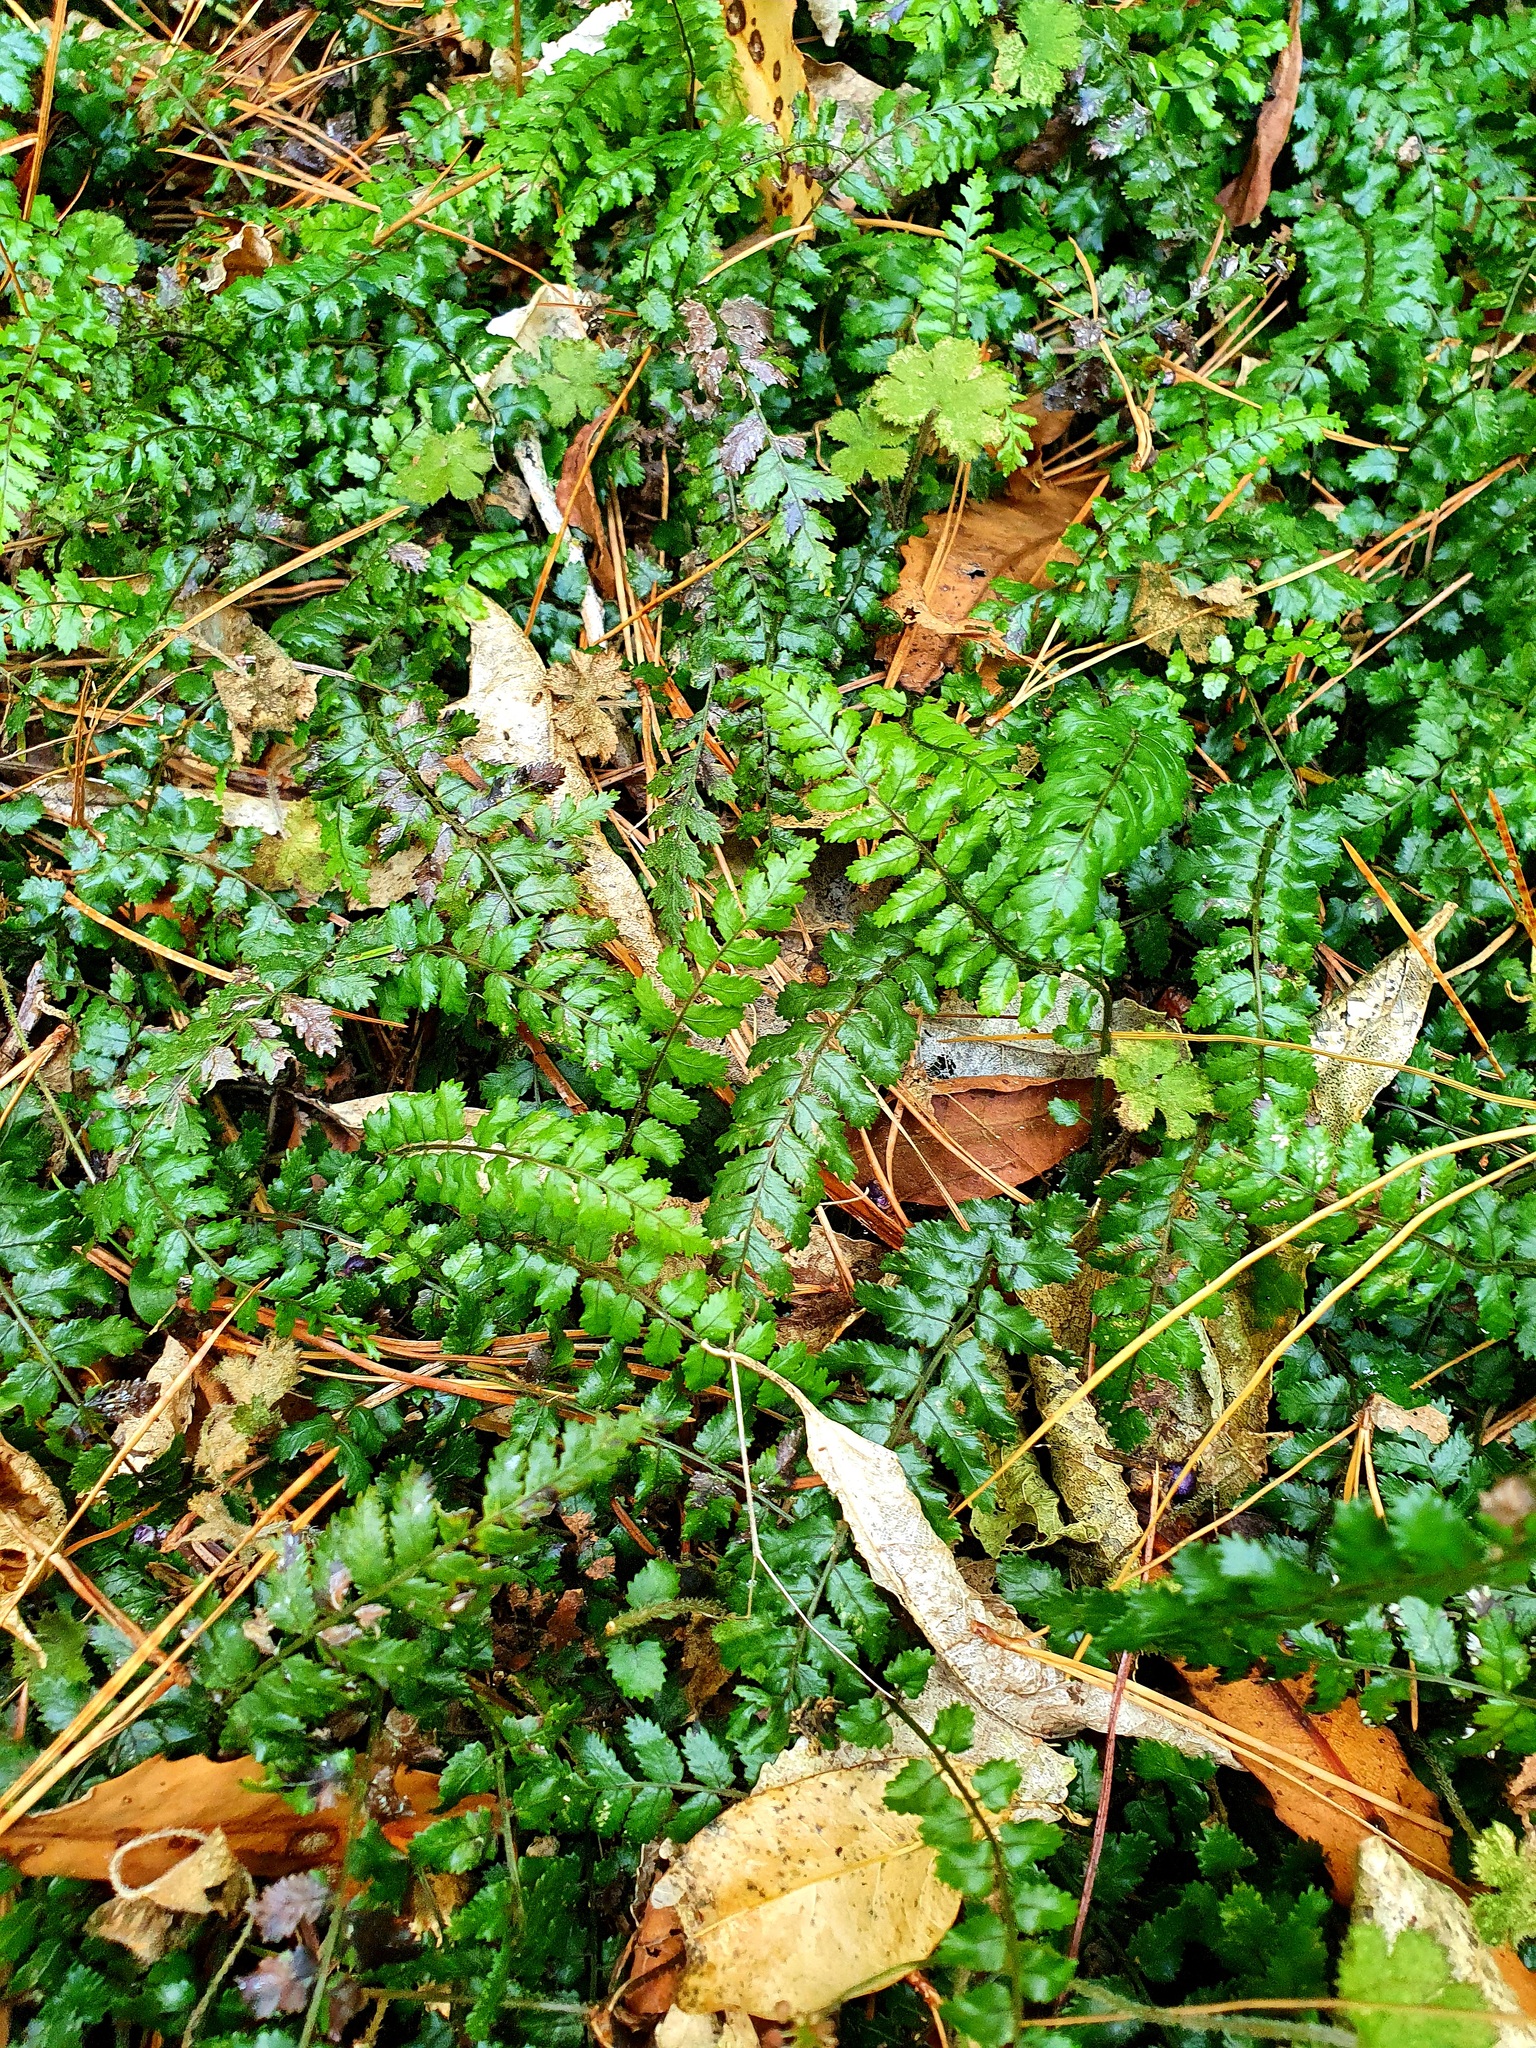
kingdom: Plantae
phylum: Tracheophyta
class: Polypodiopsida
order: Polypodiales
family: Blechnaceae
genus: Icarus
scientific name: Icarus filiformis
